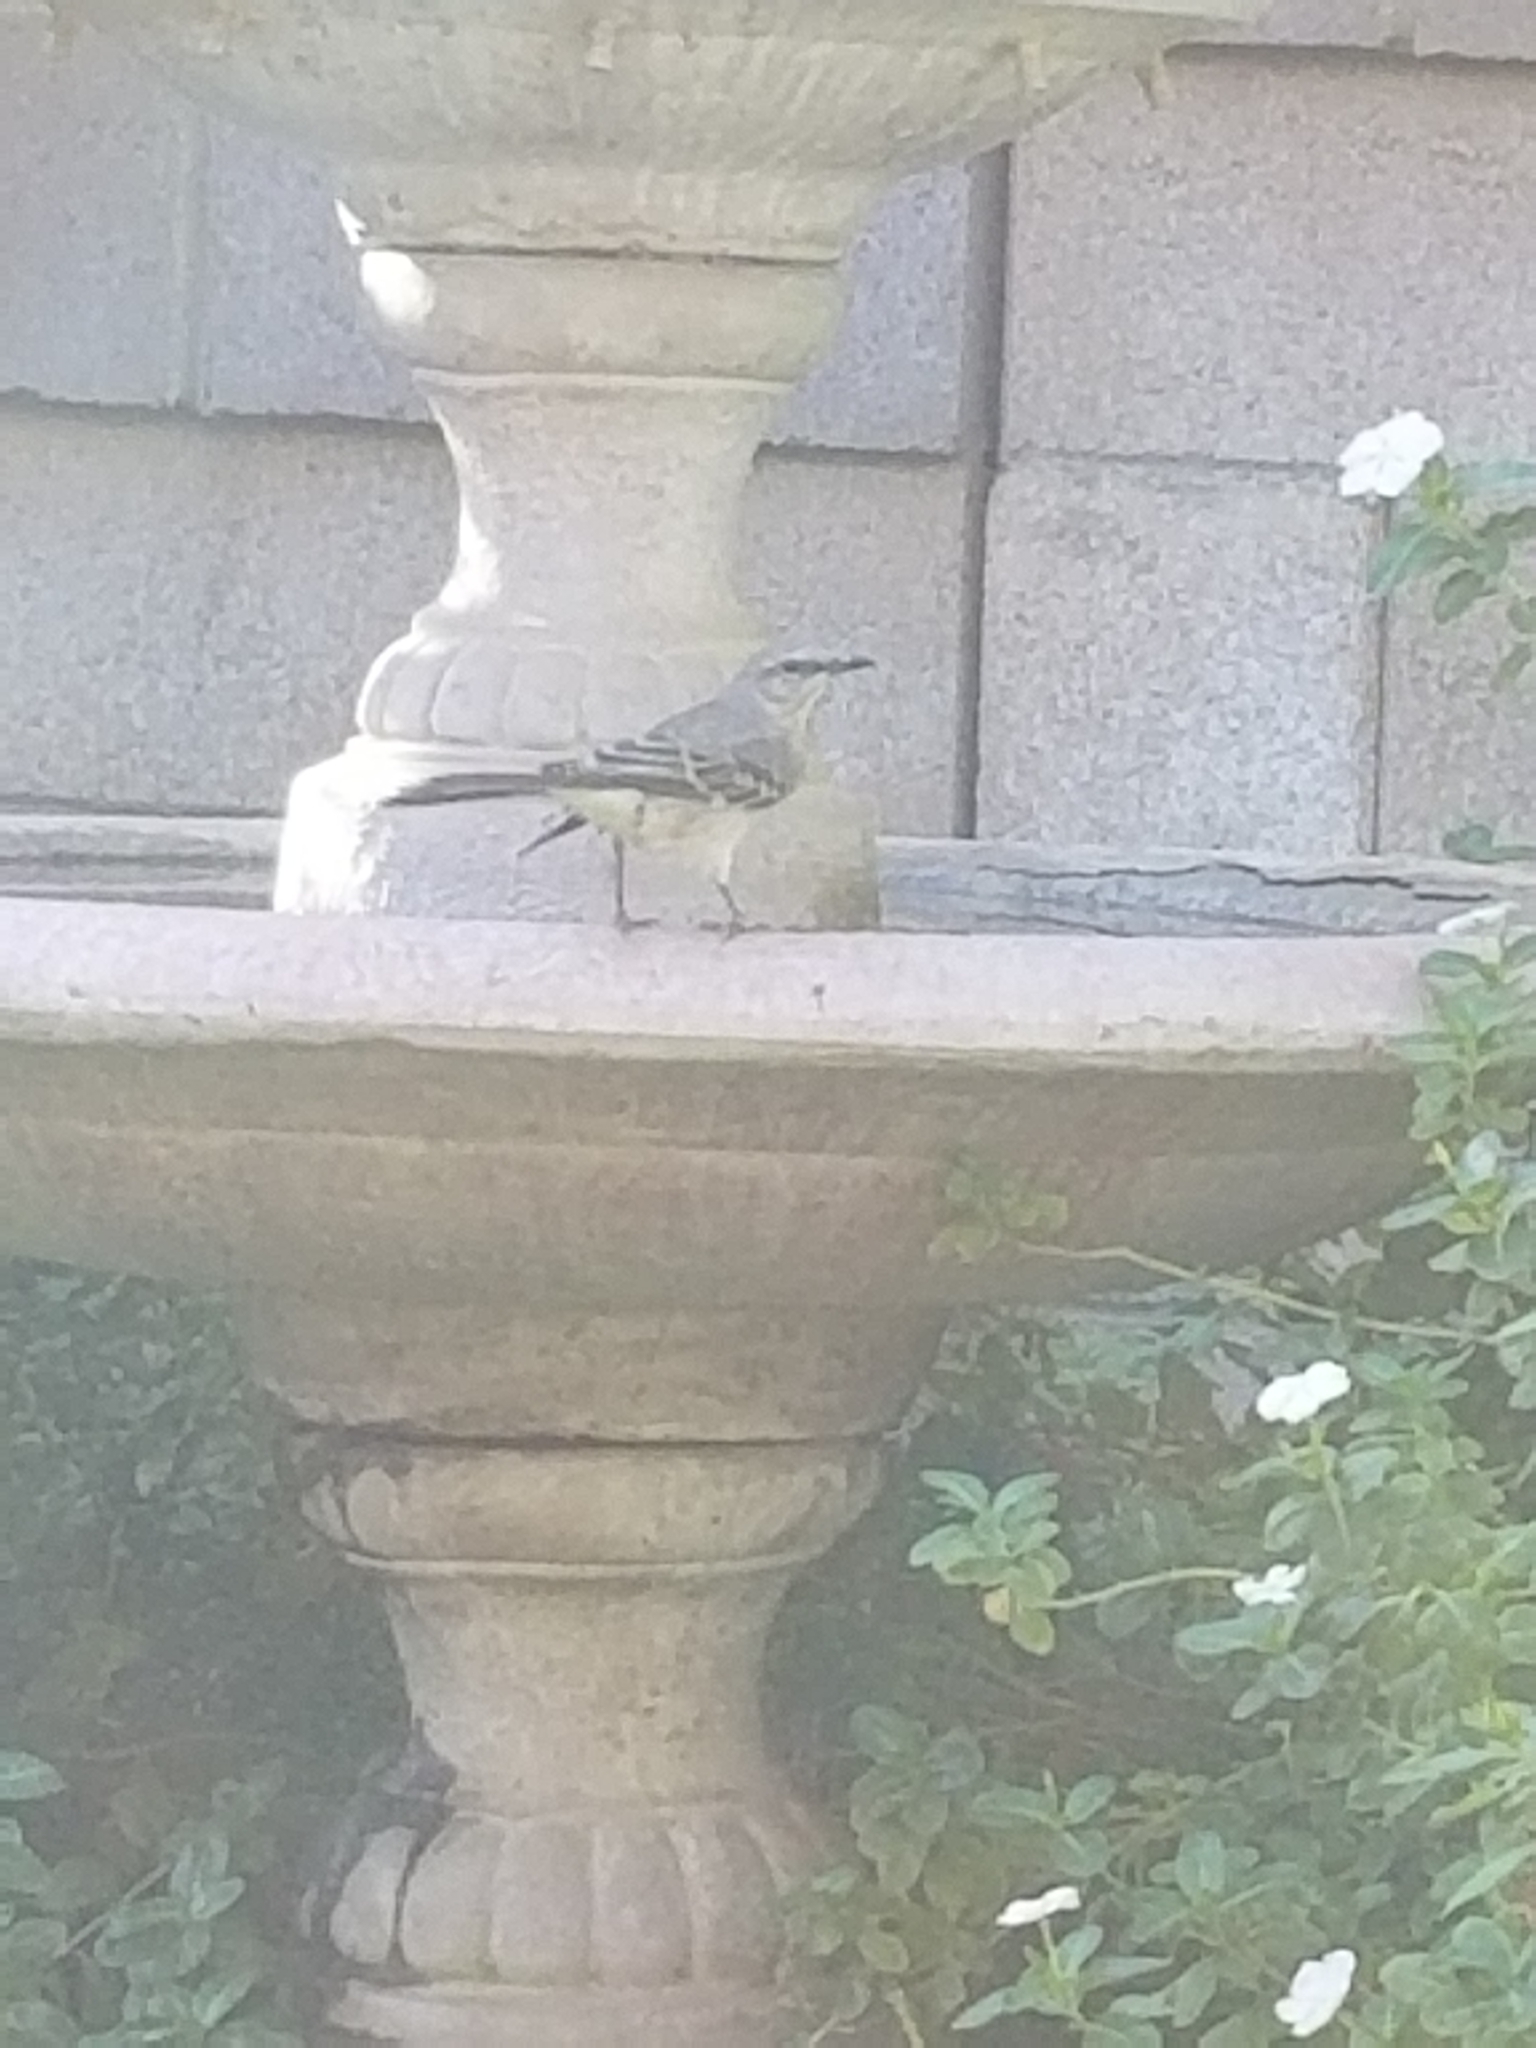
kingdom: Animalia
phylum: Chordata
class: Aves
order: Passeriformes
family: Mimidae
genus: Mimus
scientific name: Mimus polyglottos
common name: Northern mockingbird
